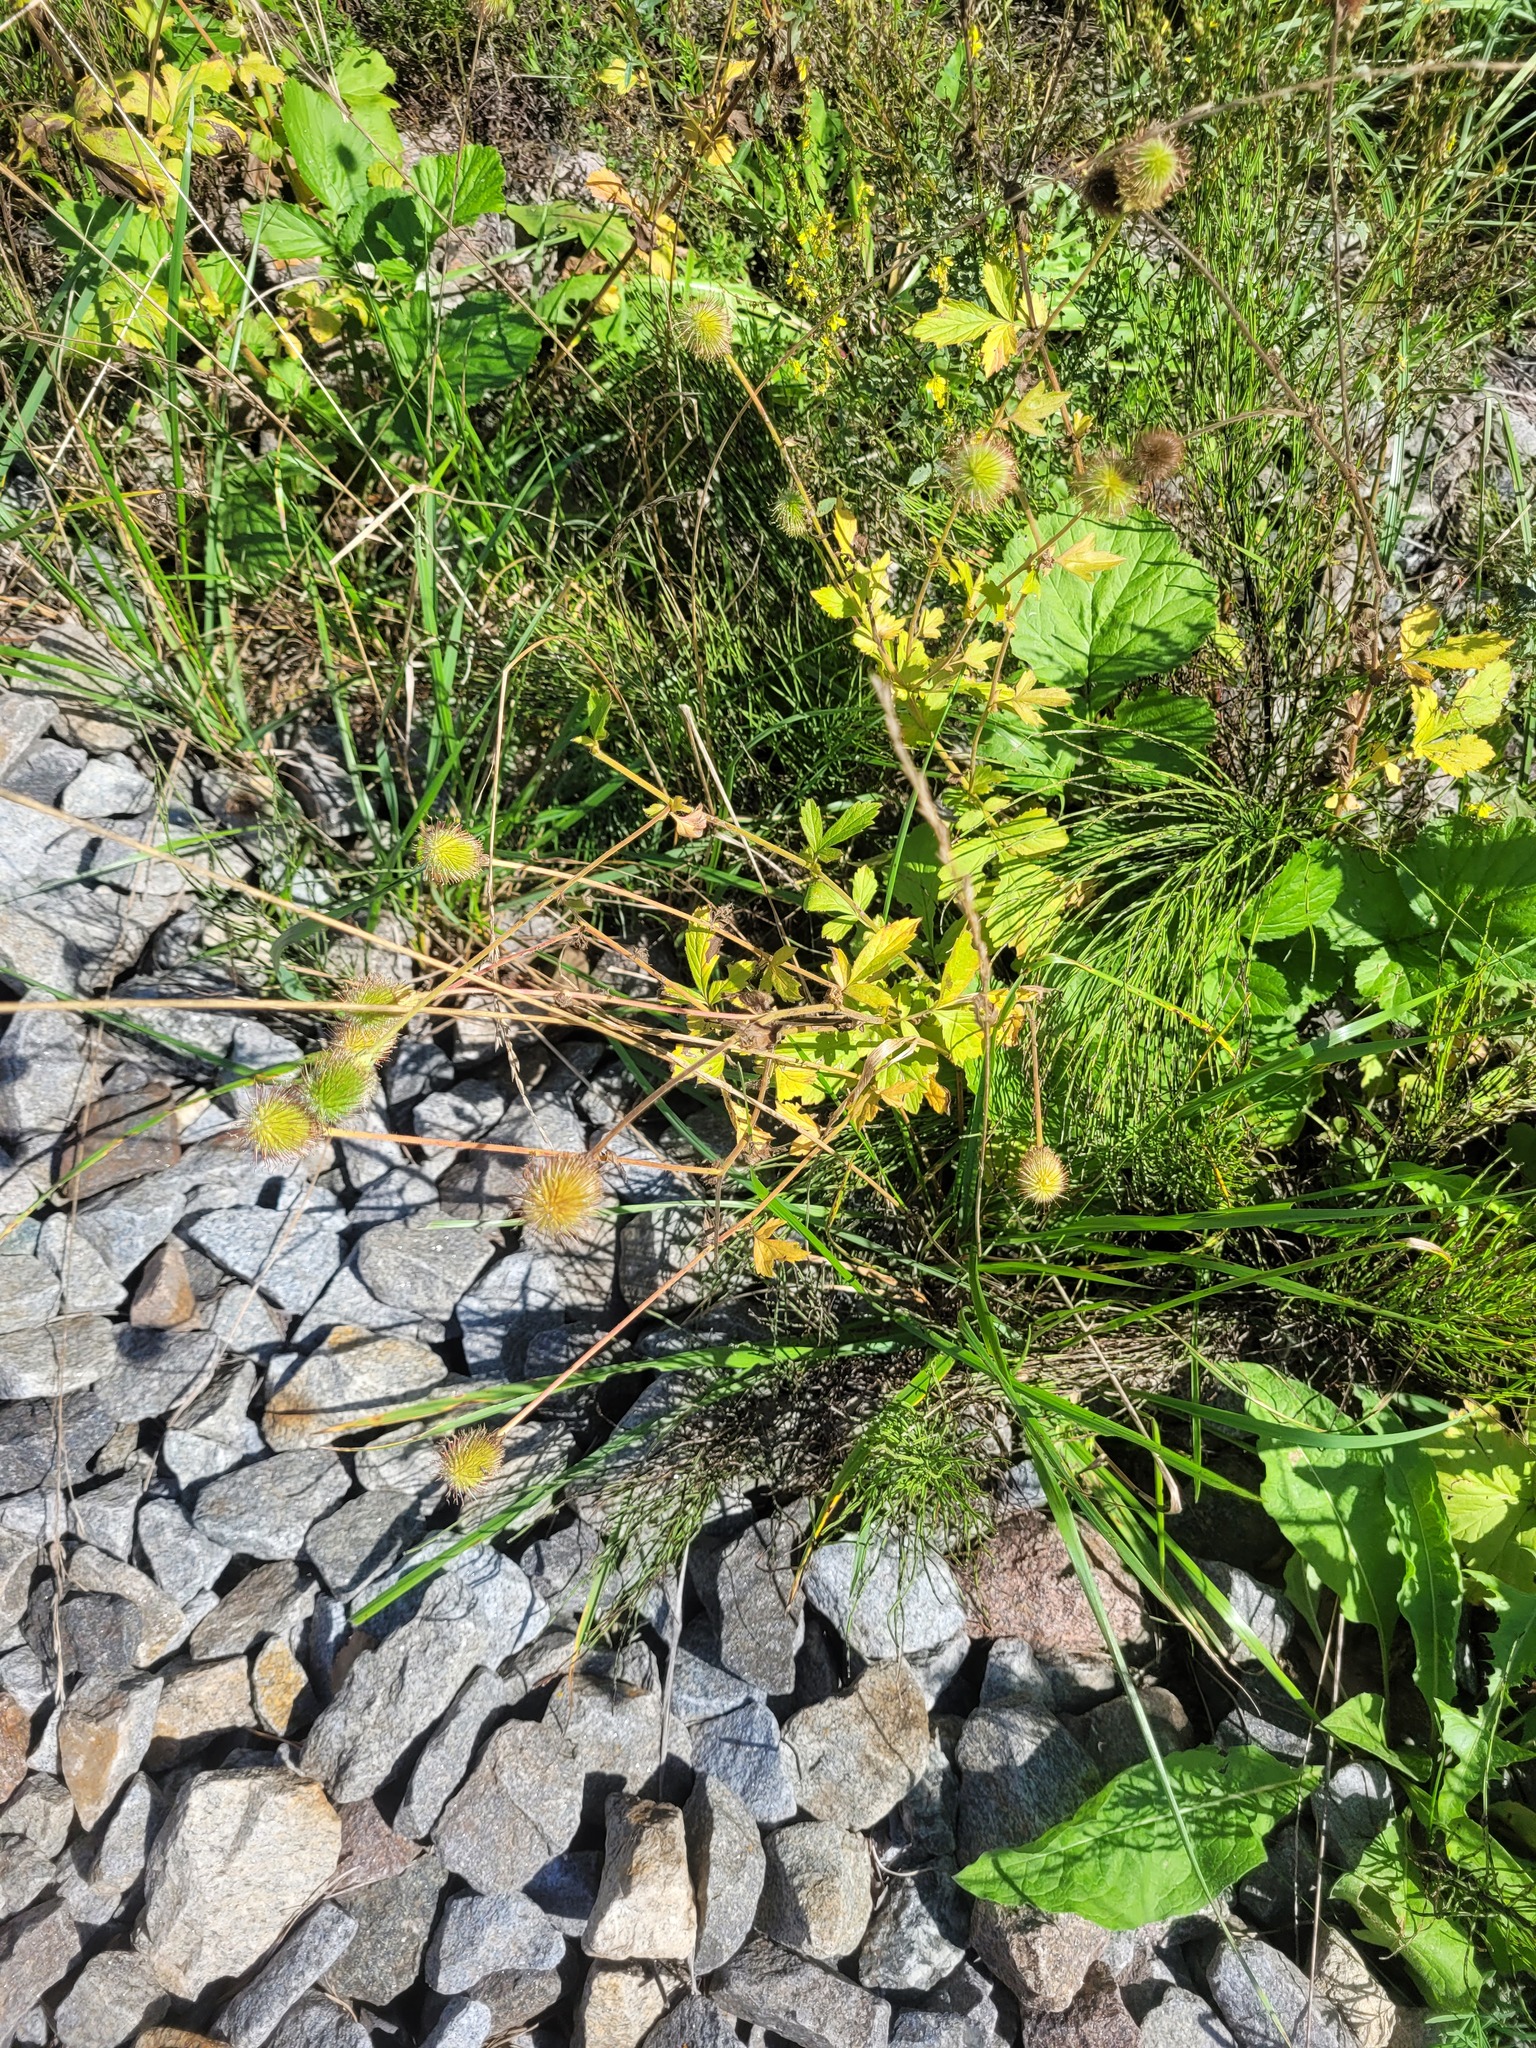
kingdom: Plantae
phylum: Tracheophyta
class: Magnoliopsida
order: Rosales
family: Rosaceae
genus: Geum
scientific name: Geum aleppicum
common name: Yellow avens
